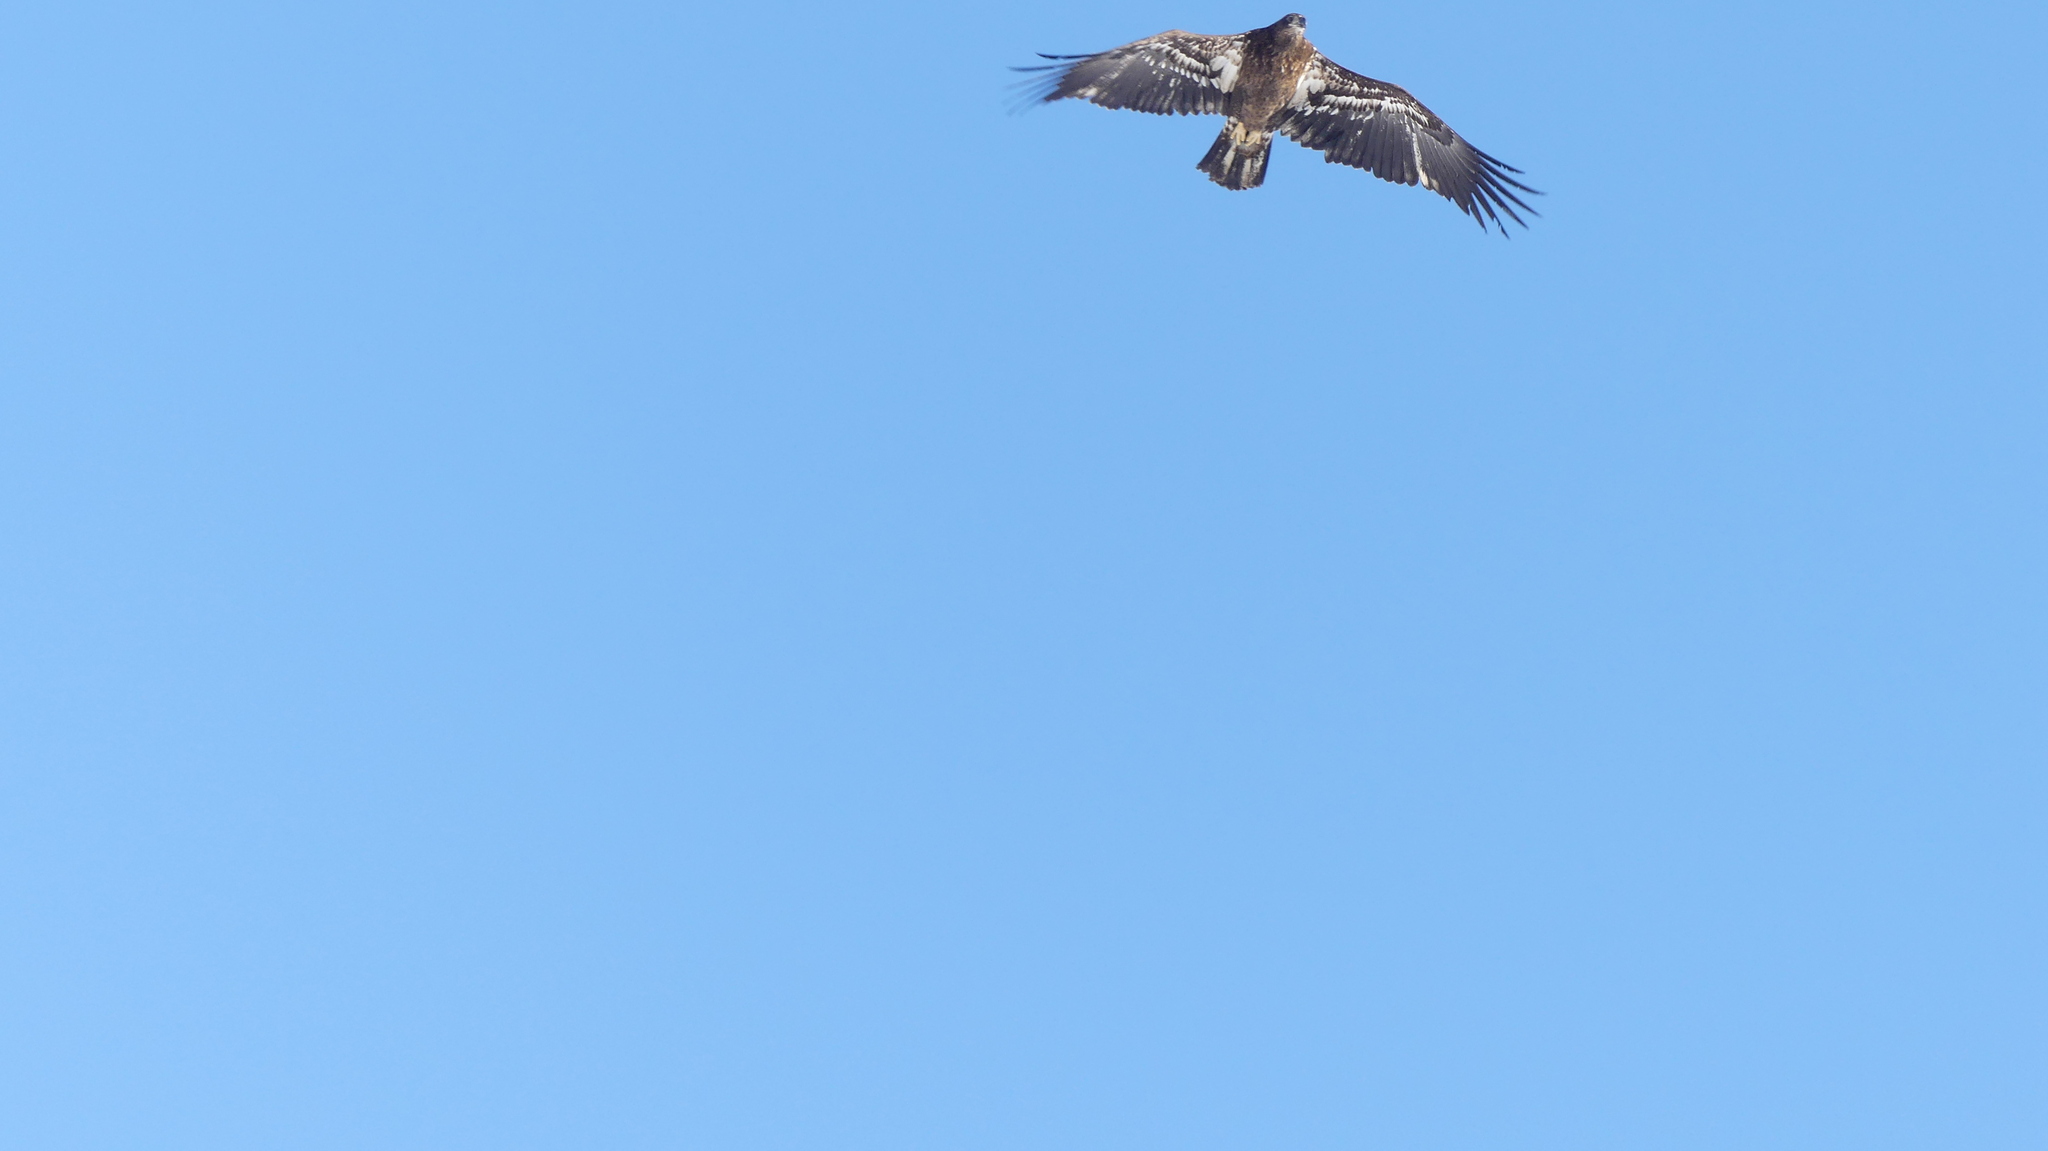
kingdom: Animalia
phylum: Chordata
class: Aves
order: Accipitriformes
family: Accipitridae
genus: Haliaeetus
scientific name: Haliaeetus leucocephalus
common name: Bald eagle
